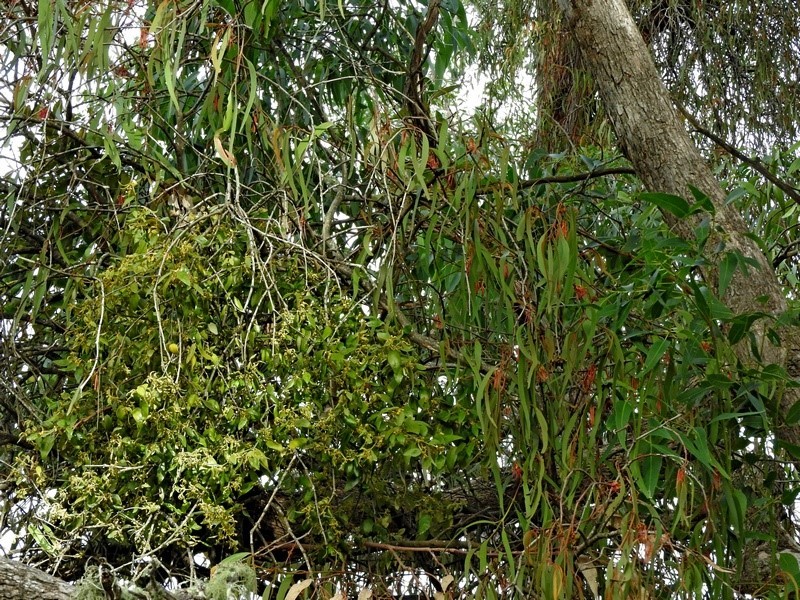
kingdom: Plantae
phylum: Tracheophyta
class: Magnoliopsida
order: Santalales
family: Viscaceae
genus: Notothixos
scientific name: Notothixos subaureus
